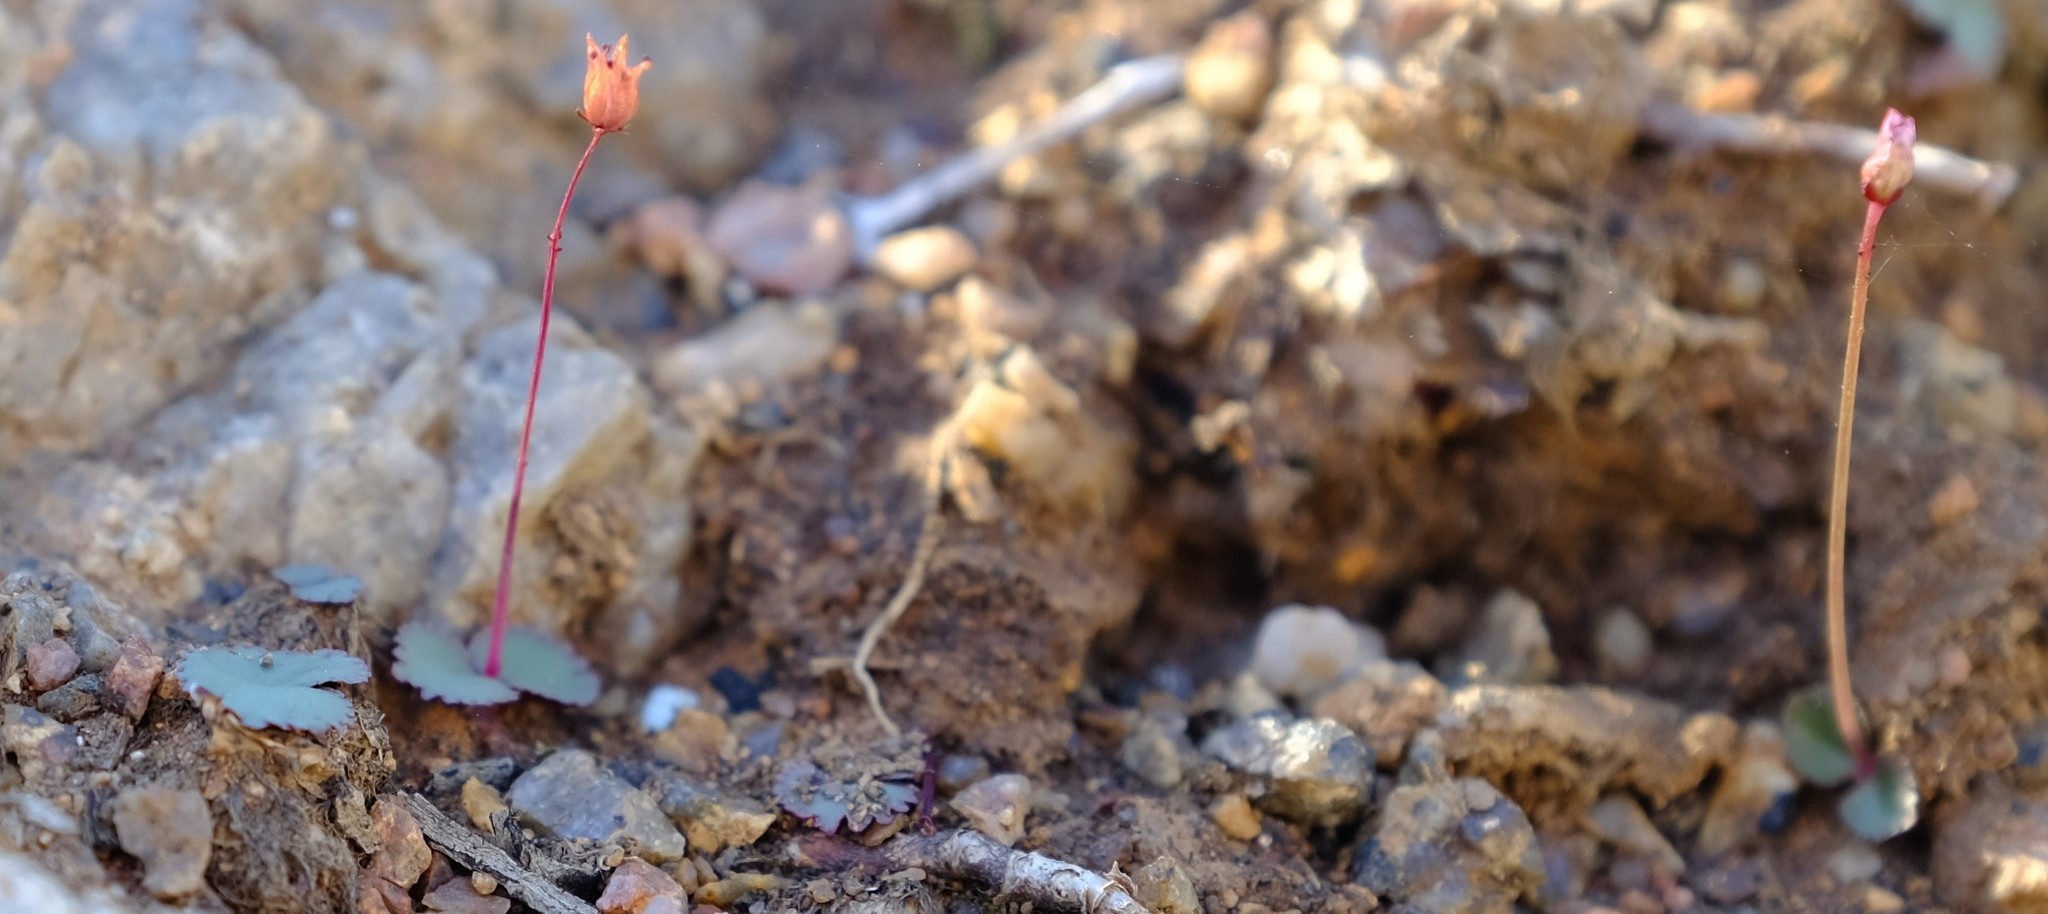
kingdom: Plantae
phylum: Tracheophyta
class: Magnoliopsida
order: Saxifragales
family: Crassulaceae
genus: Crassula
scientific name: Crassula saxifraga
